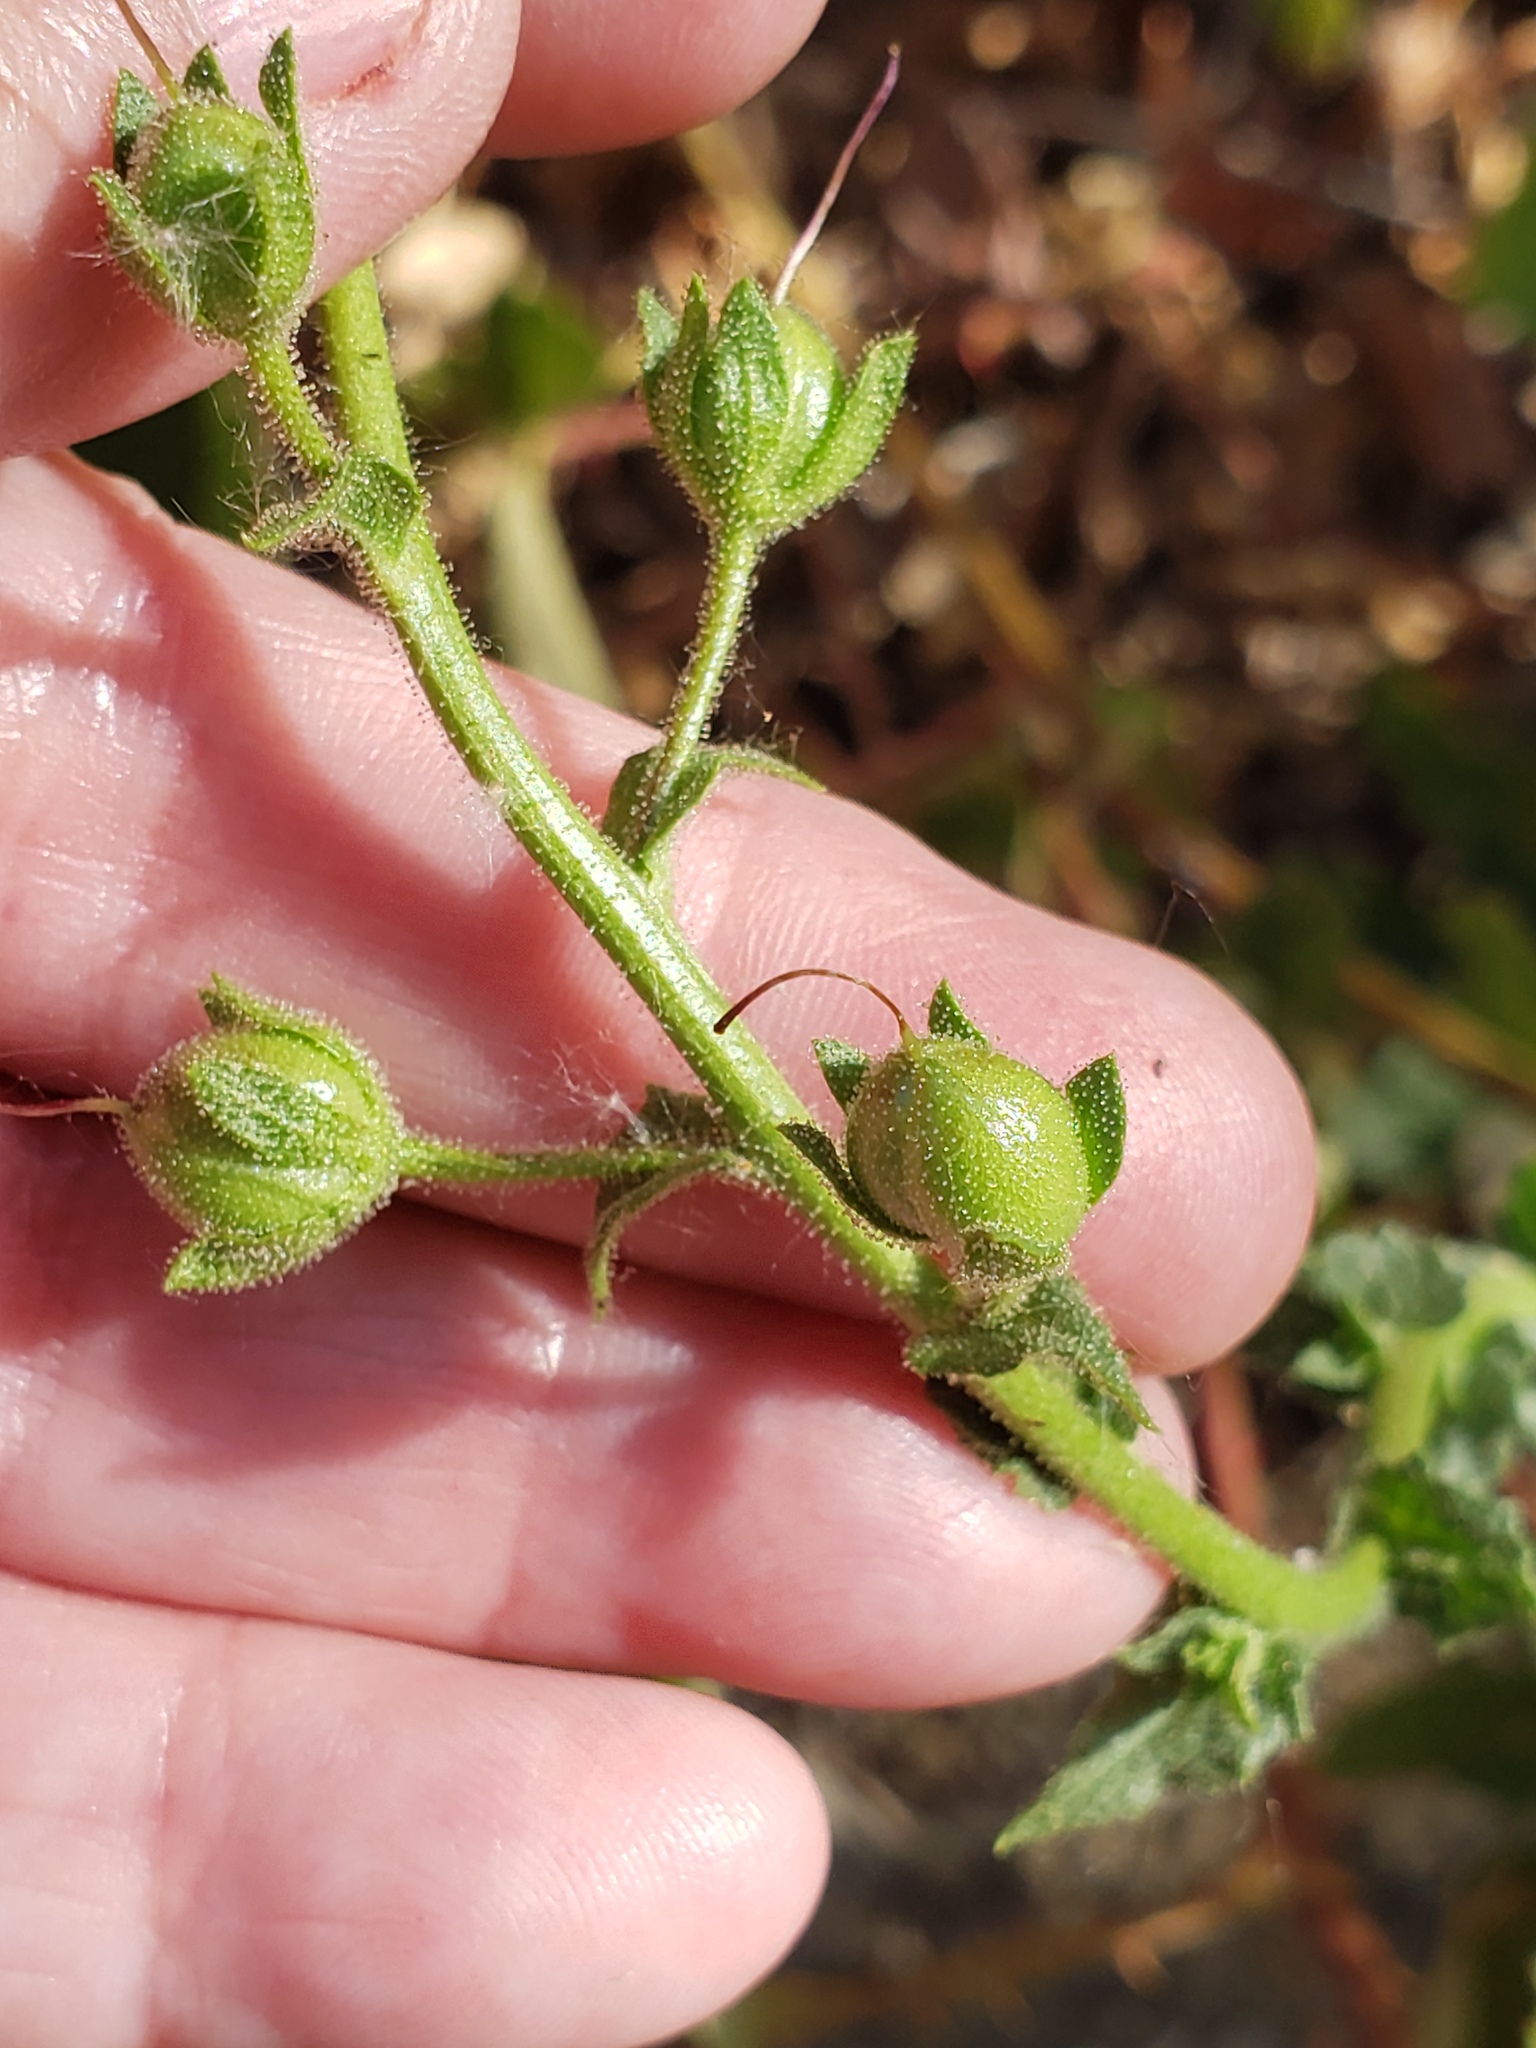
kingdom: Plantae
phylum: Tracheophyta
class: Magnoliopsida
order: Lamiales
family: Scrophulariaceae
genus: Verbascum
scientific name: Verbascum blattaria
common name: Moth mullein
